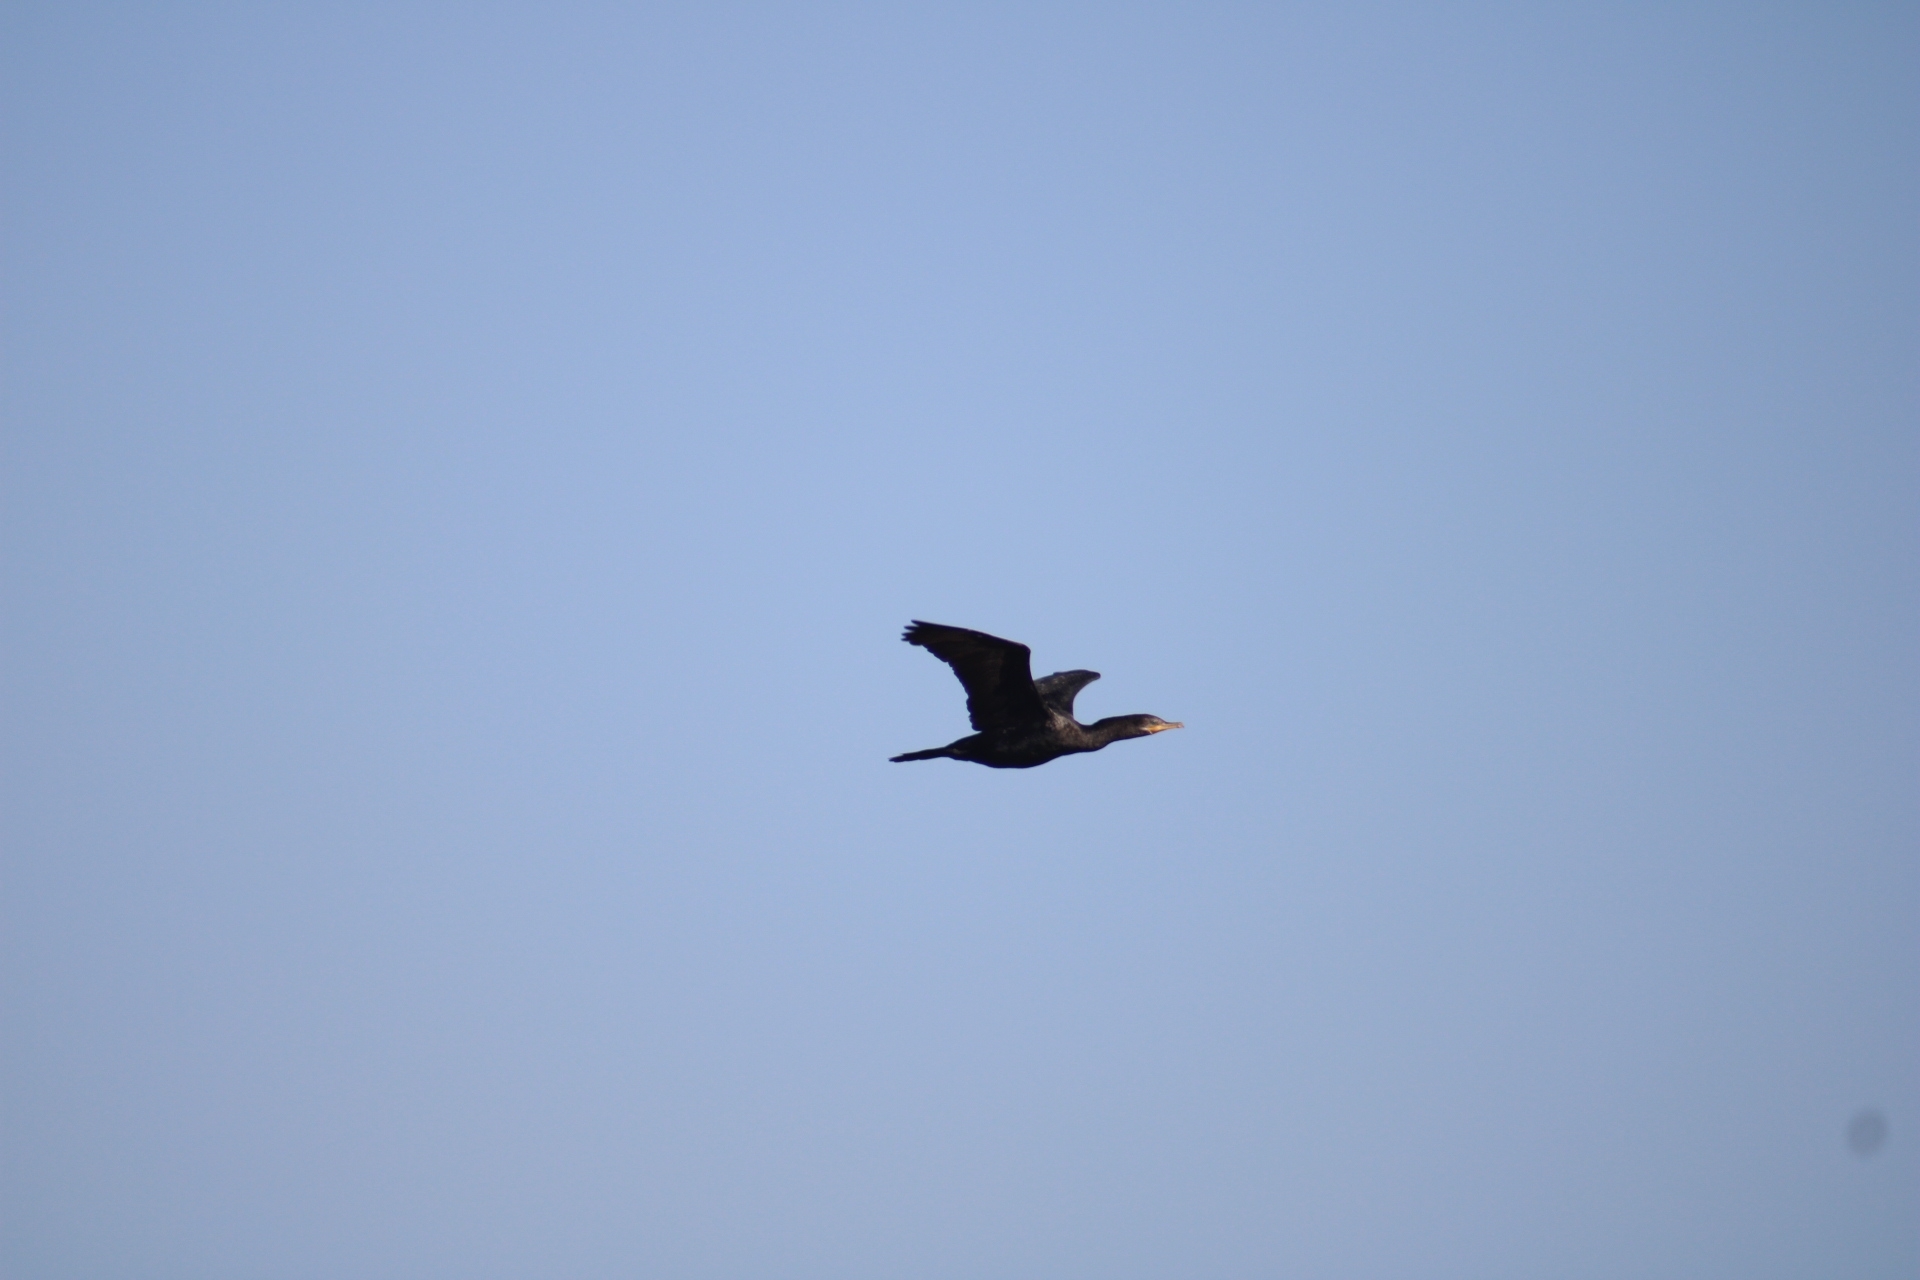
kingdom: Animalia
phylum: Chordata
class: Aves
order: Suliformes
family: Phalacrocoracidae
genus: Phalacrocorax
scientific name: Phalacrocorax brasilianus
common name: Neotropic cormorant
